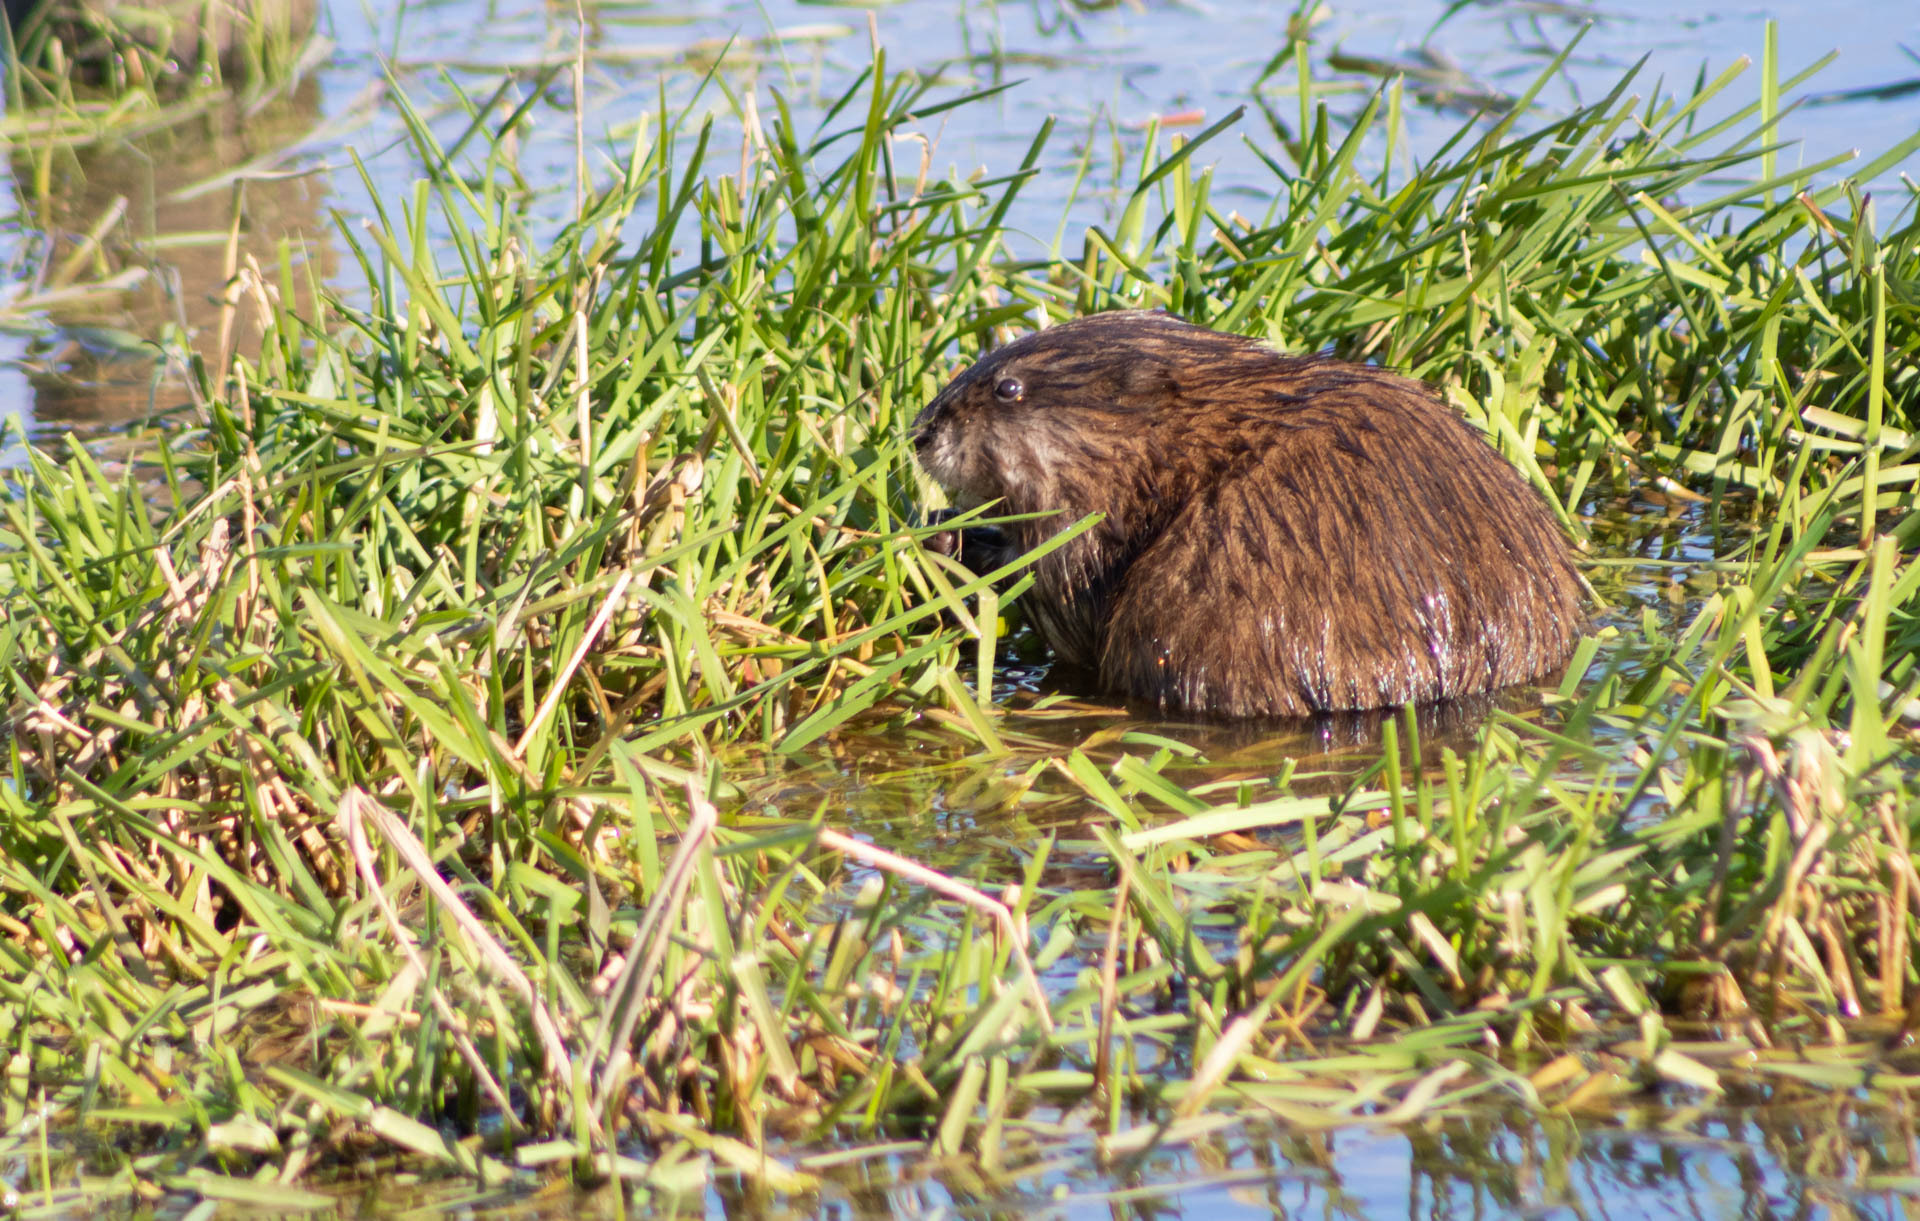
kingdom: Animalia
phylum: Chordata
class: Mammalia
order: Rodentia
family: Cricetidae
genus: Ondatra
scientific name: Ondatra zibethicus
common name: Muskrat
